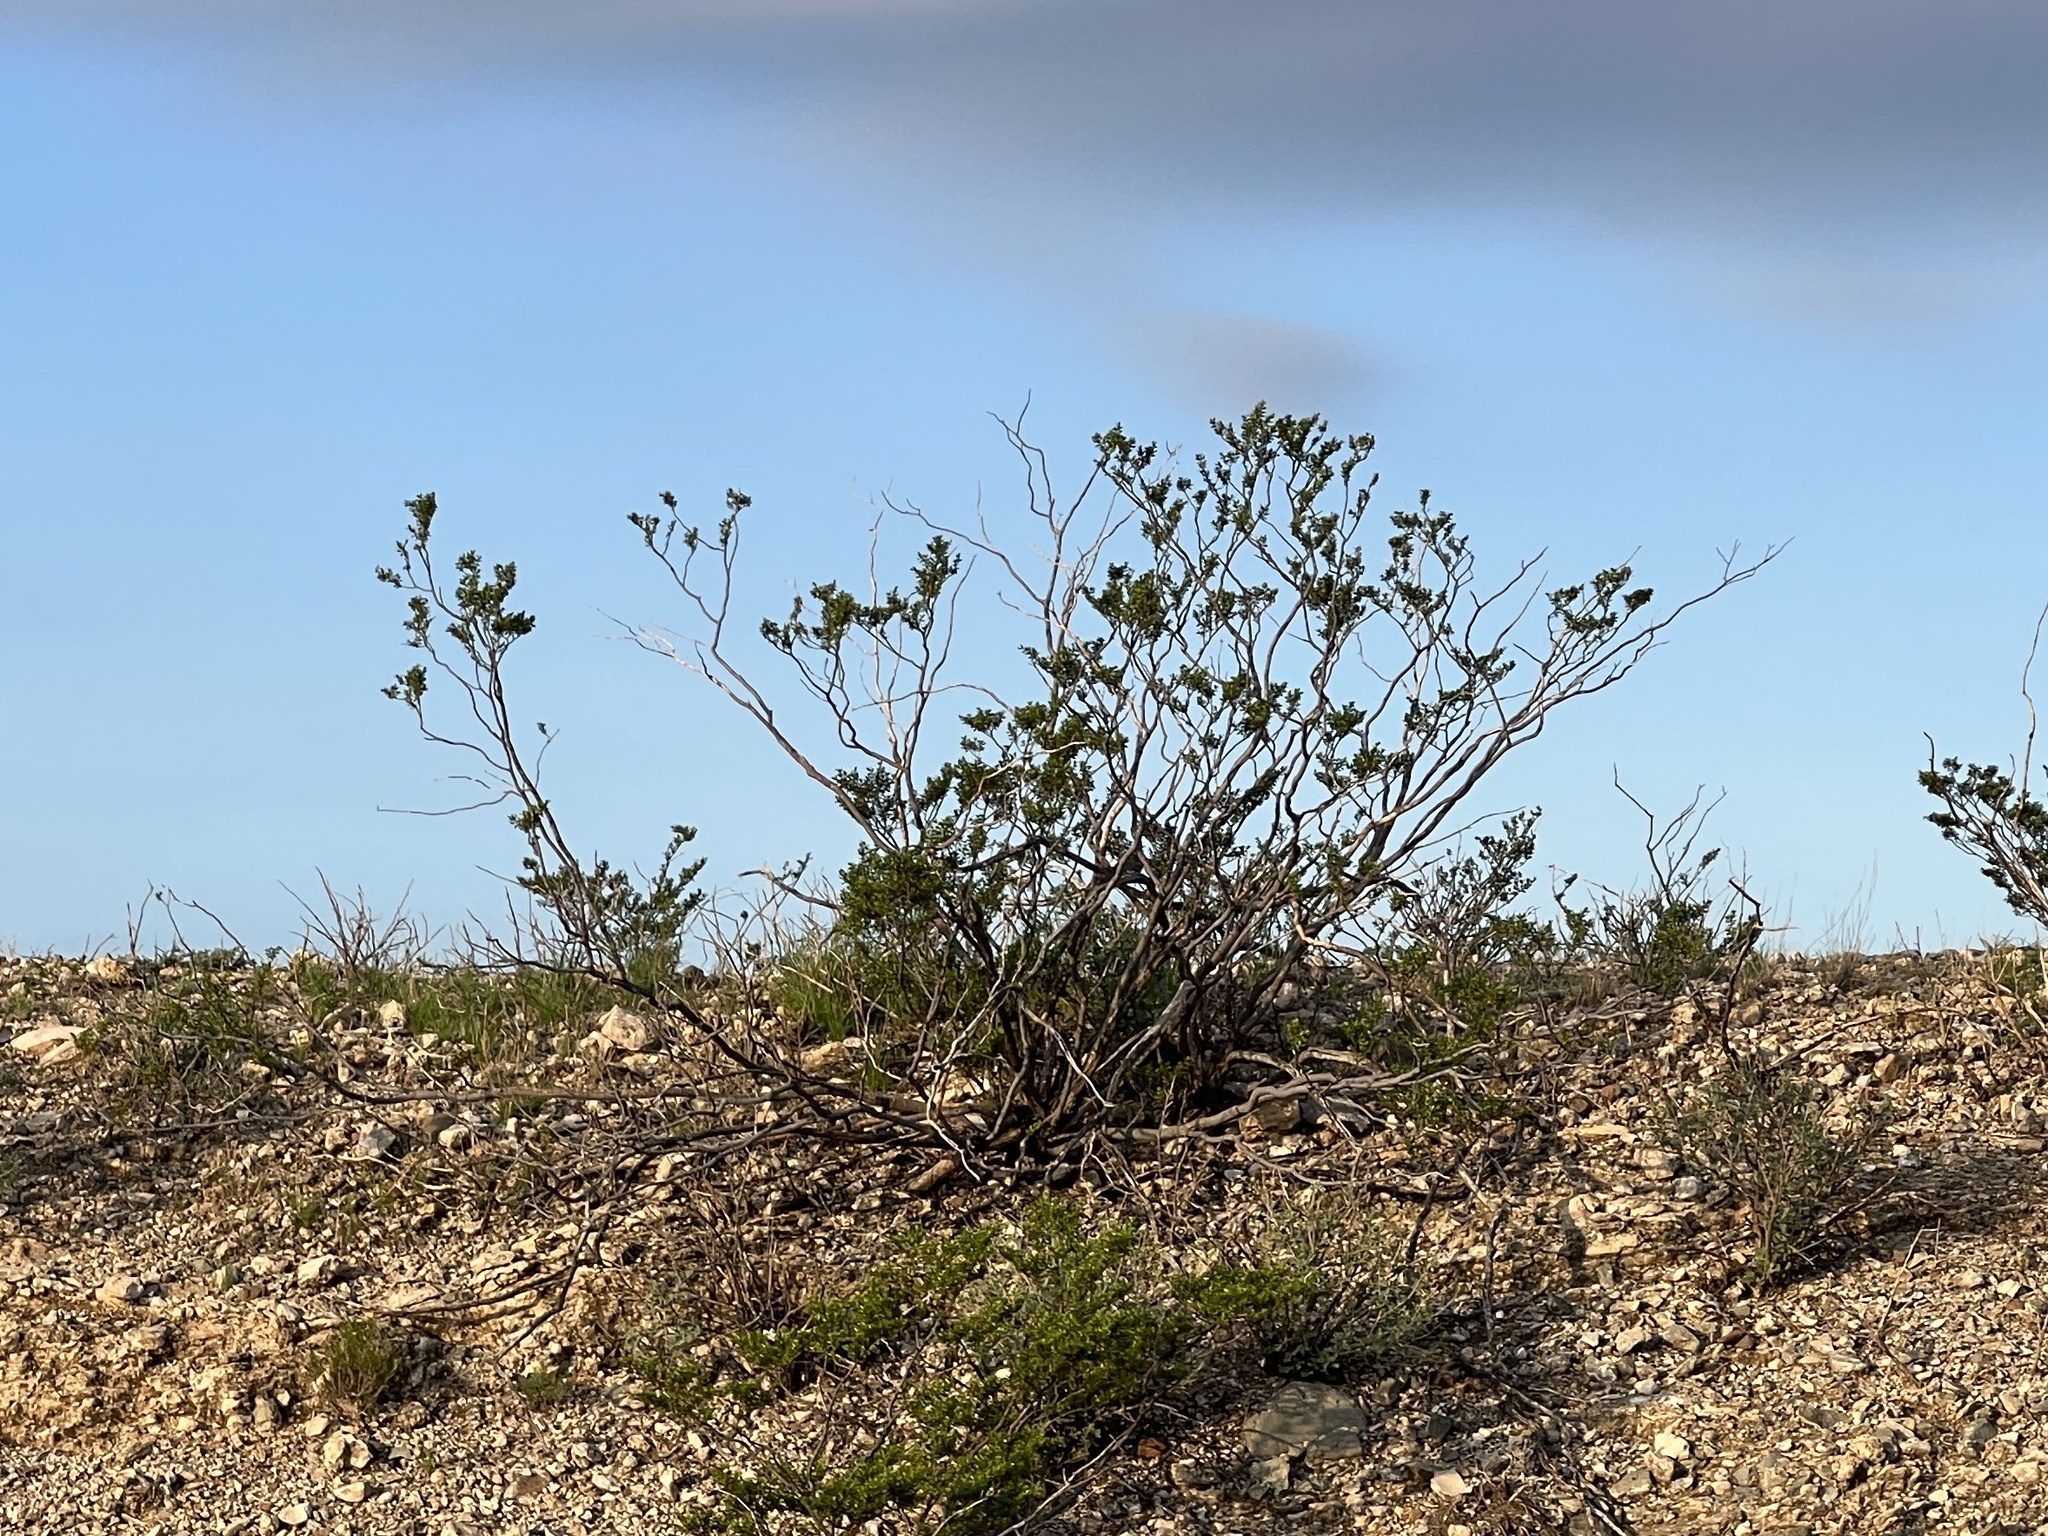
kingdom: Plantae
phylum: Tracheophyta
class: Magnoliopsida
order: Zygophyllales
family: Zygophyllaceae
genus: Larrea
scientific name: Larrea tridentata
